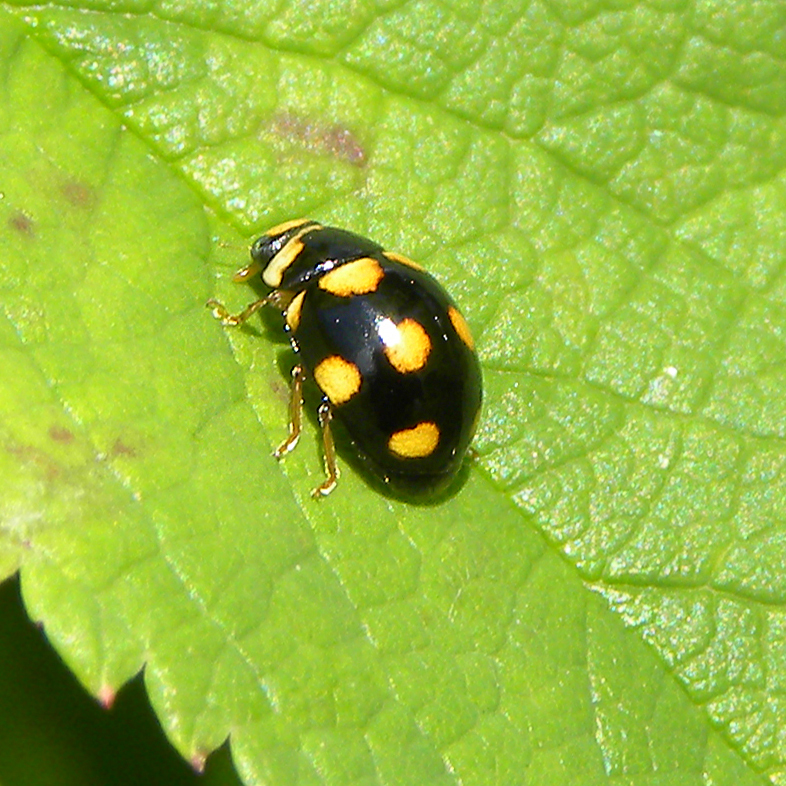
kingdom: Animalia
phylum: Arthropoda
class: Insecta
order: Coleoptera
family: Coccinellidae
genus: Brachiacantha
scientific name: Brachiacantha ursina
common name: Ursine spurleg lady beetle
